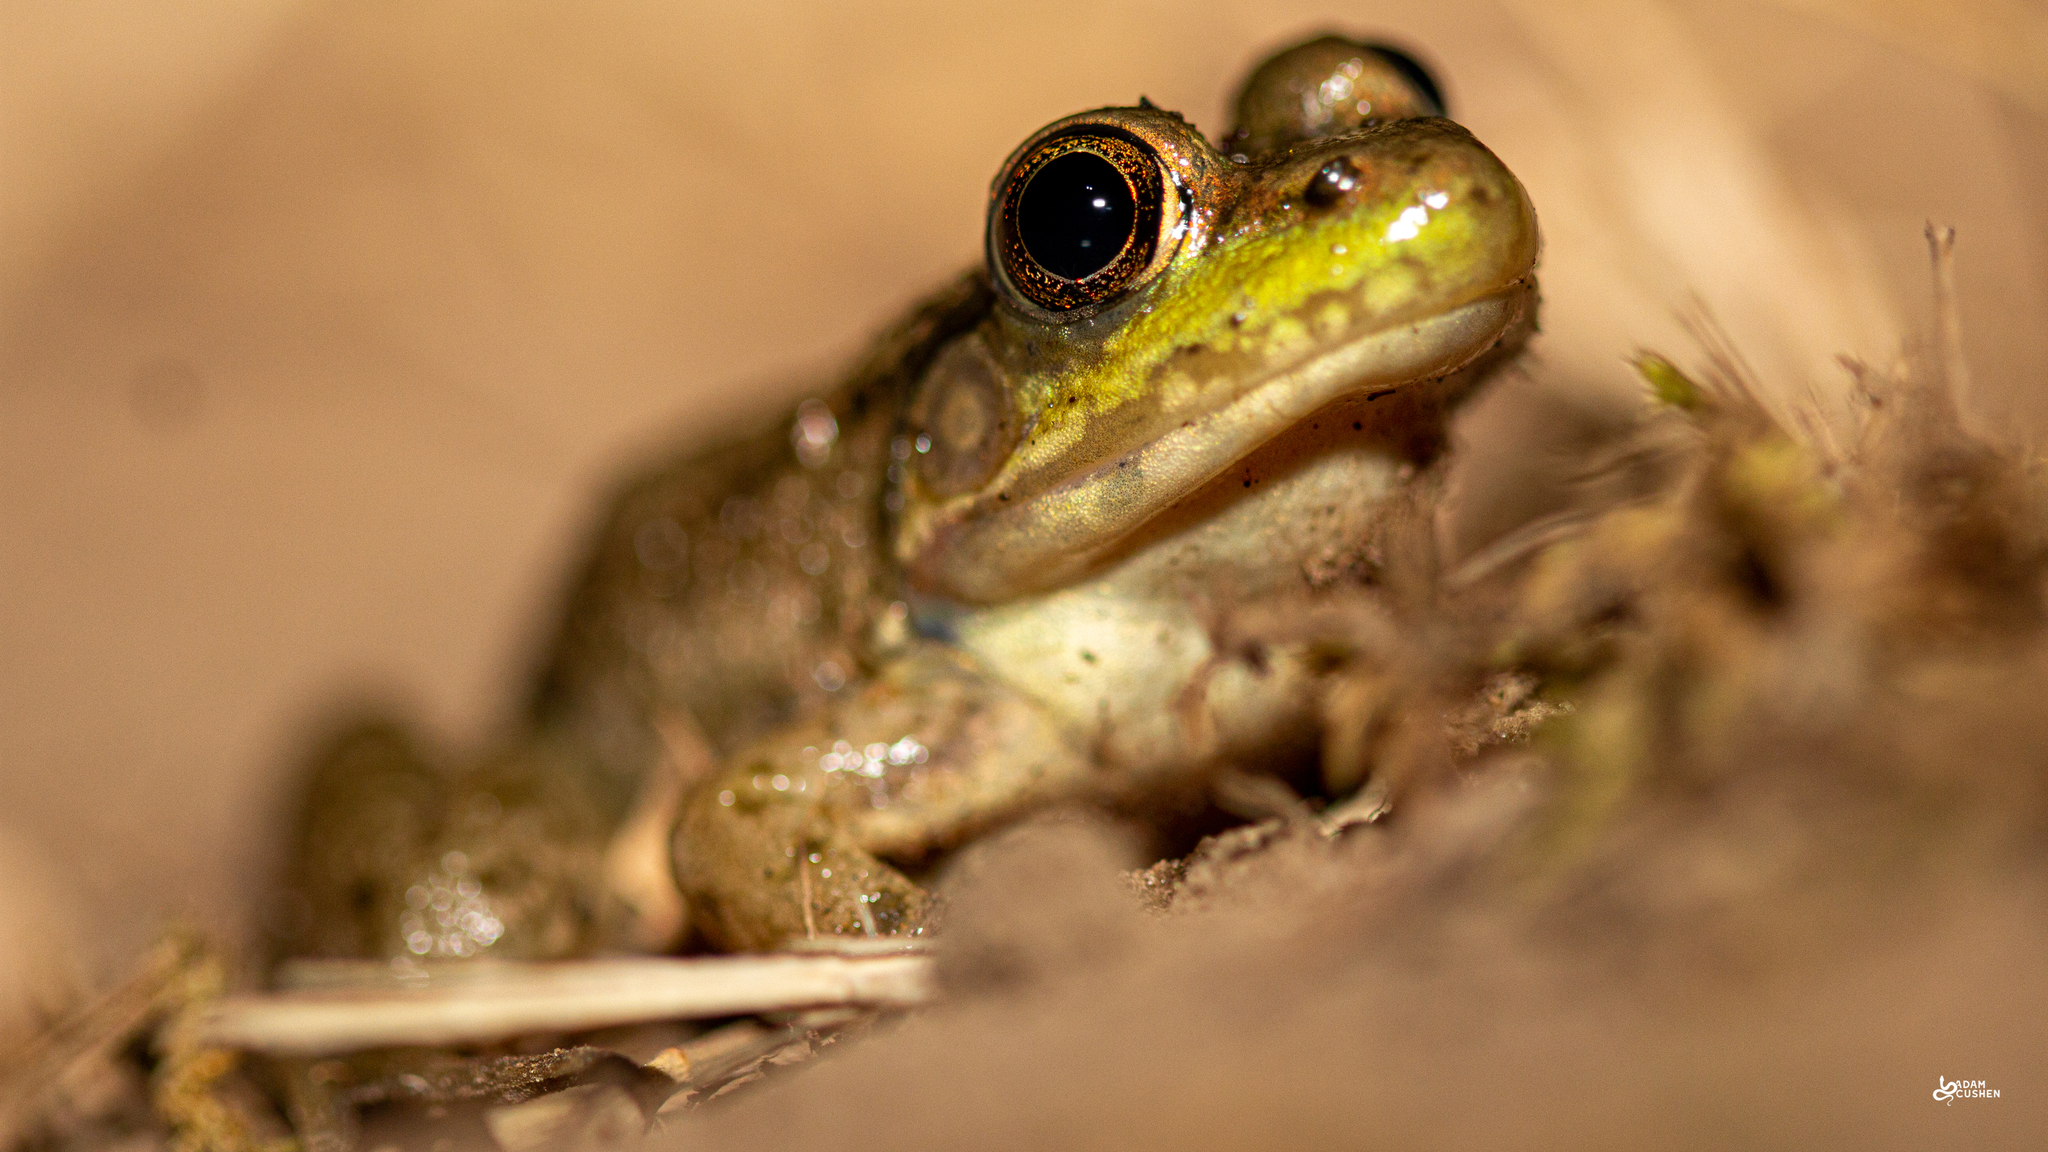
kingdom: Animalia
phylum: Chordata
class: Amphibia
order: Anura
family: Ranidae
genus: Lithobates
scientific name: Lithobates clamitans
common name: Green frog
